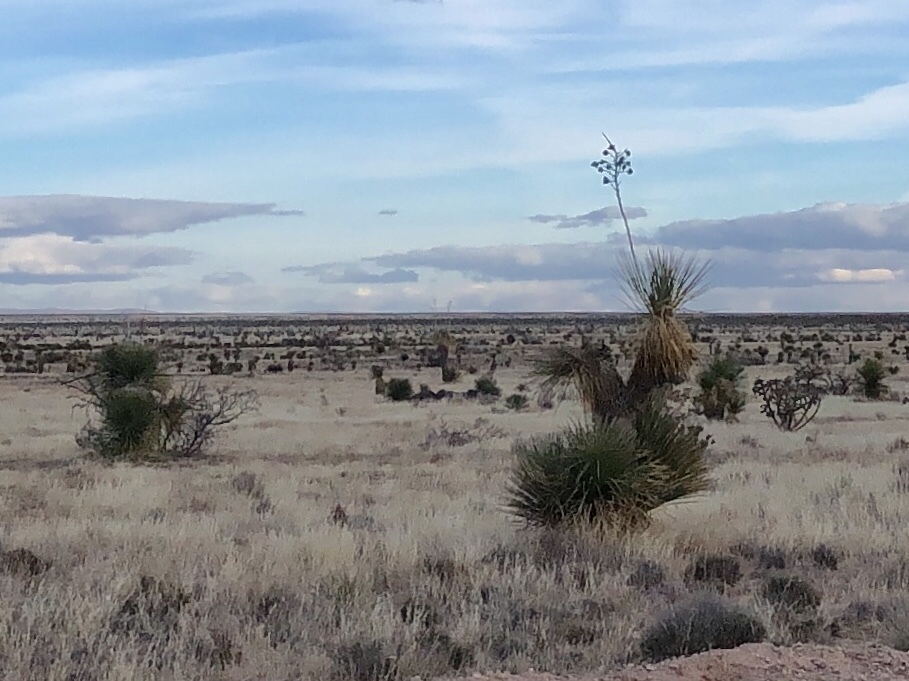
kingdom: Plantae
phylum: Tracheophyta
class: Liliopsida
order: Asparagales
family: Asparagaceae
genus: Yucca
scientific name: Yucca elata
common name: Palmella
